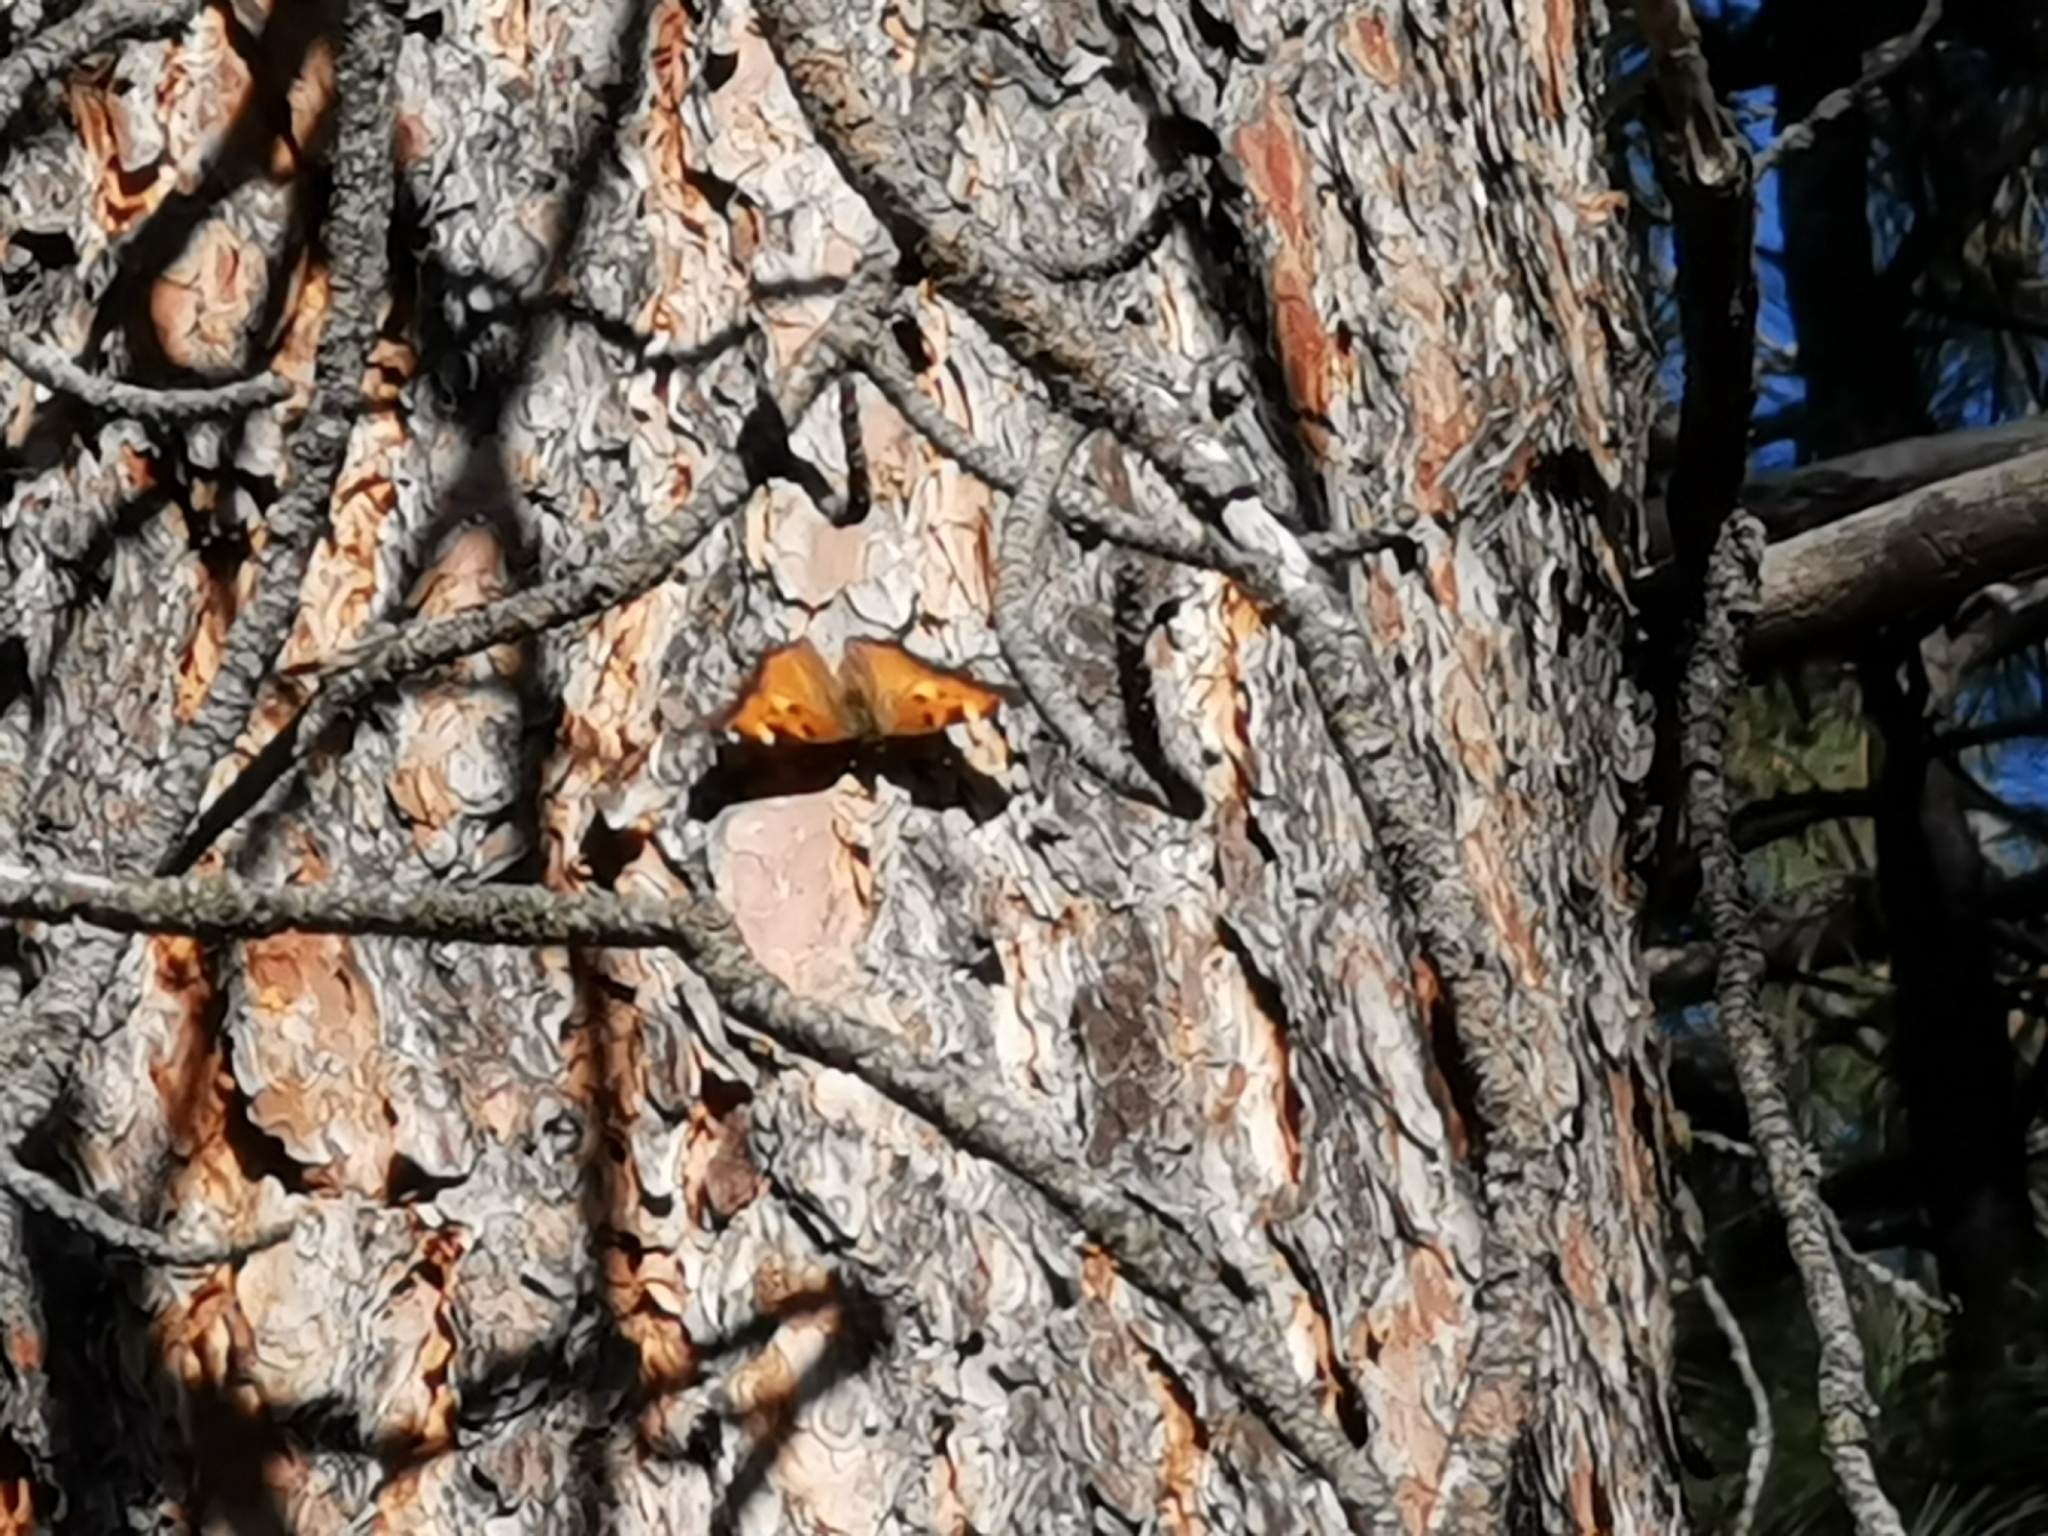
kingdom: Animalia
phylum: Arthropoda
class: Insecta
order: Lepidoptera
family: Nymphalidae
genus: Nymphalis
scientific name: Nymphalis californica
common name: California tortoiseshell
